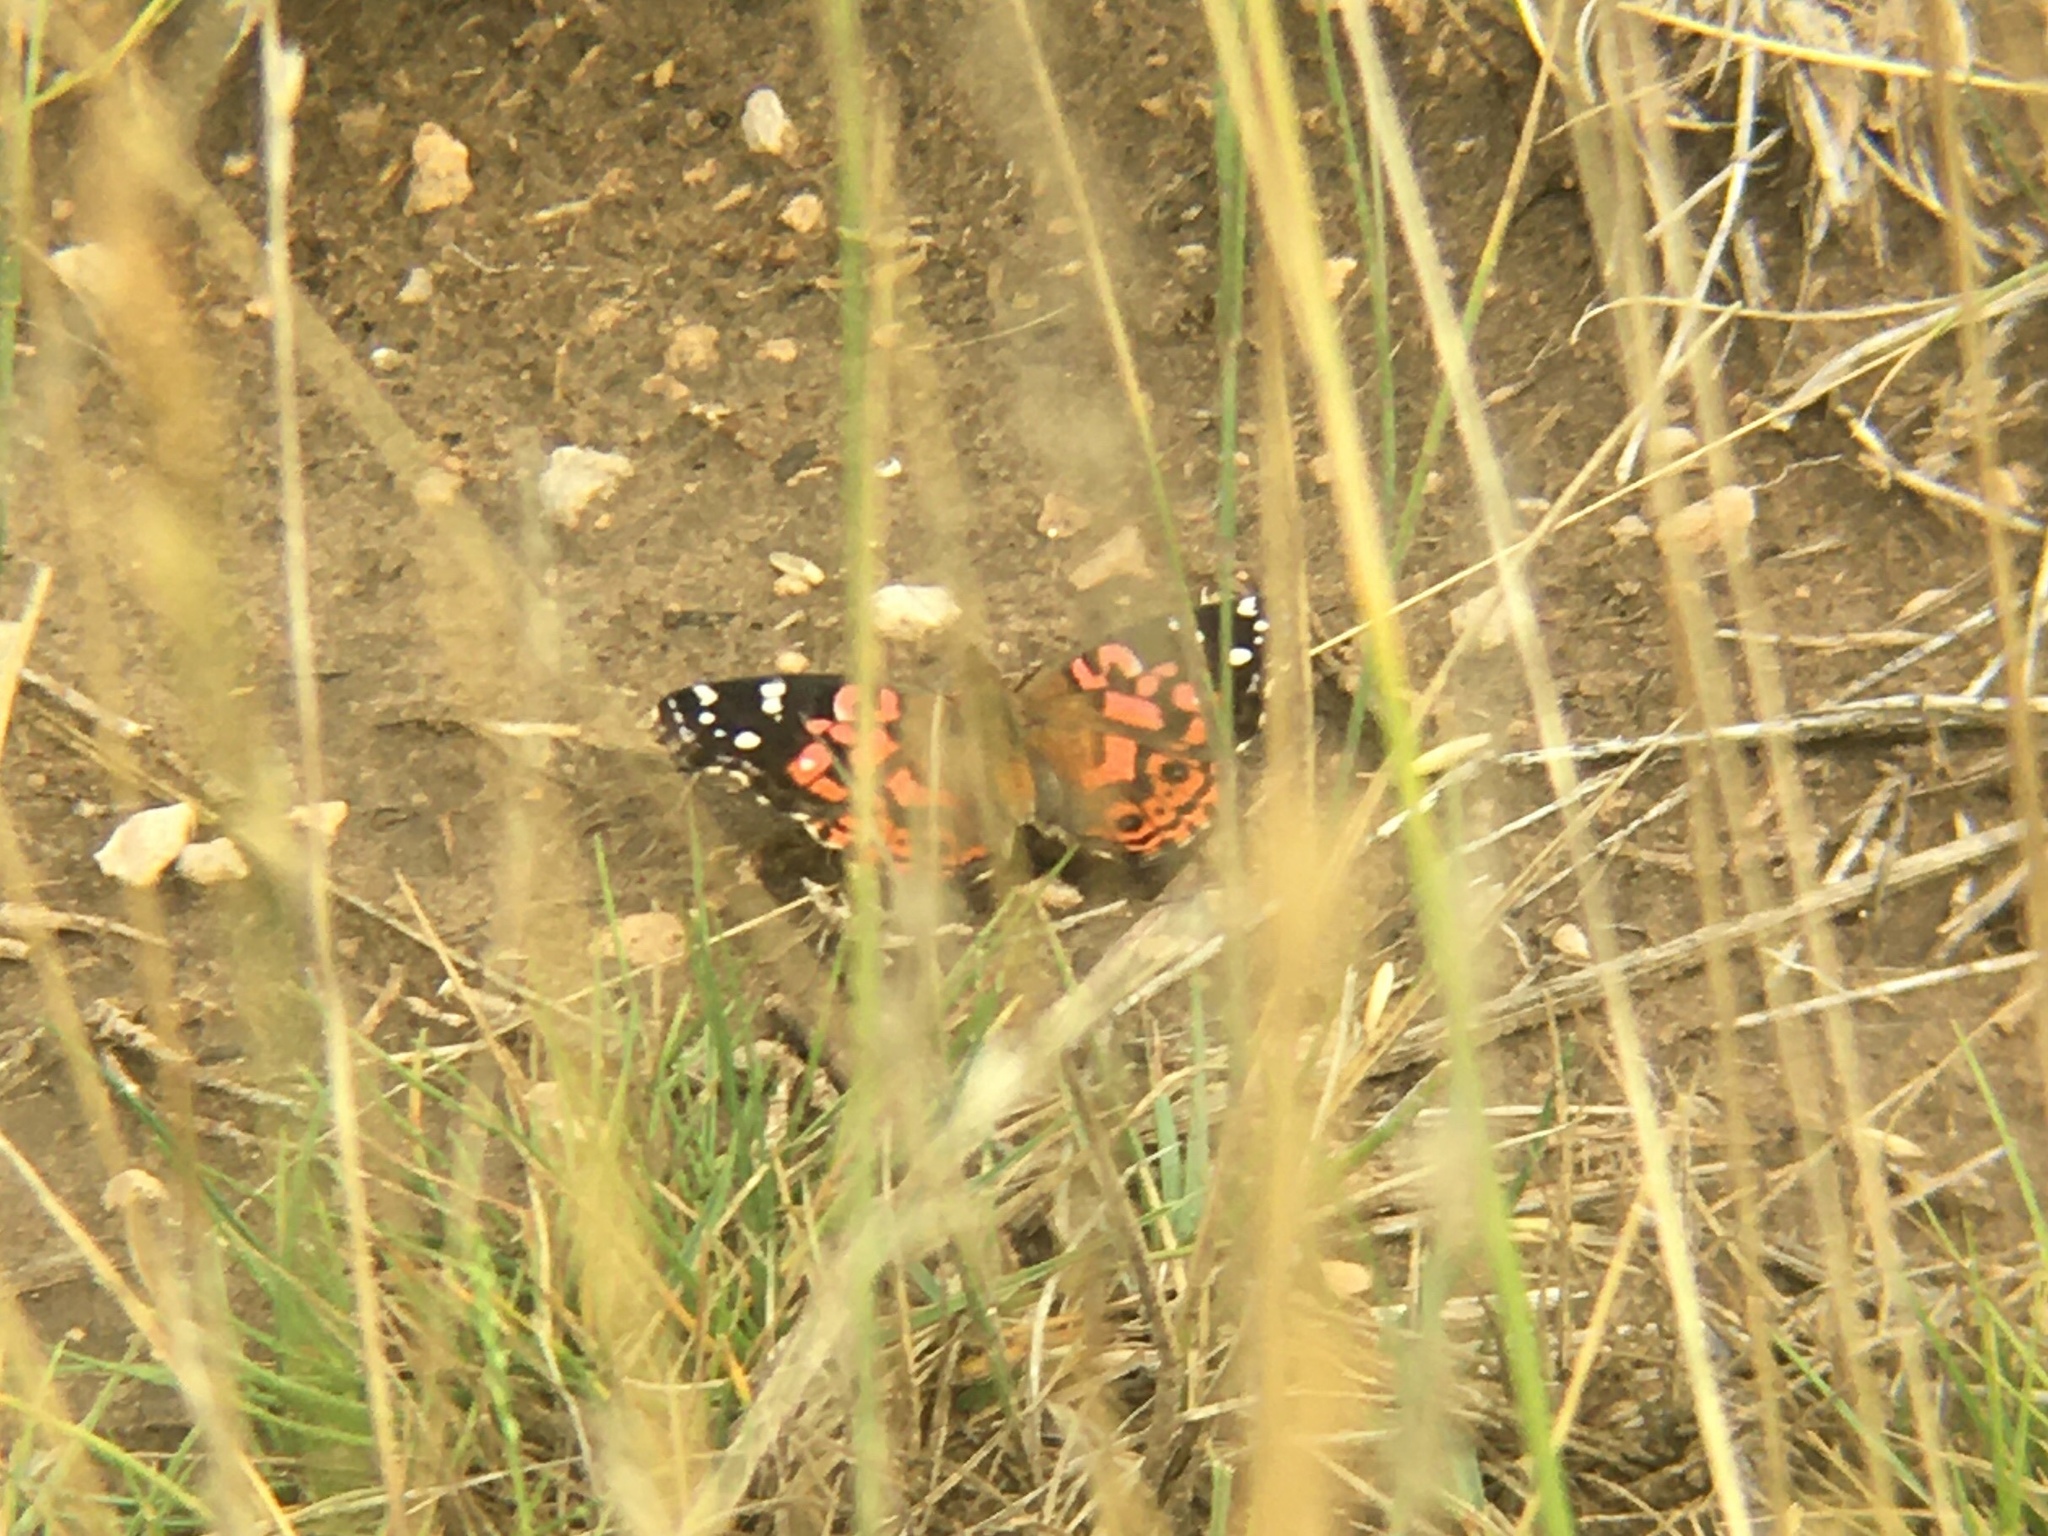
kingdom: Animalia
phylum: Arthropoda
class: Insecta
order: Lepidoptera
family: Nymphalidae
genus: Vanessa
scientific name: Vanessa braziliensis
